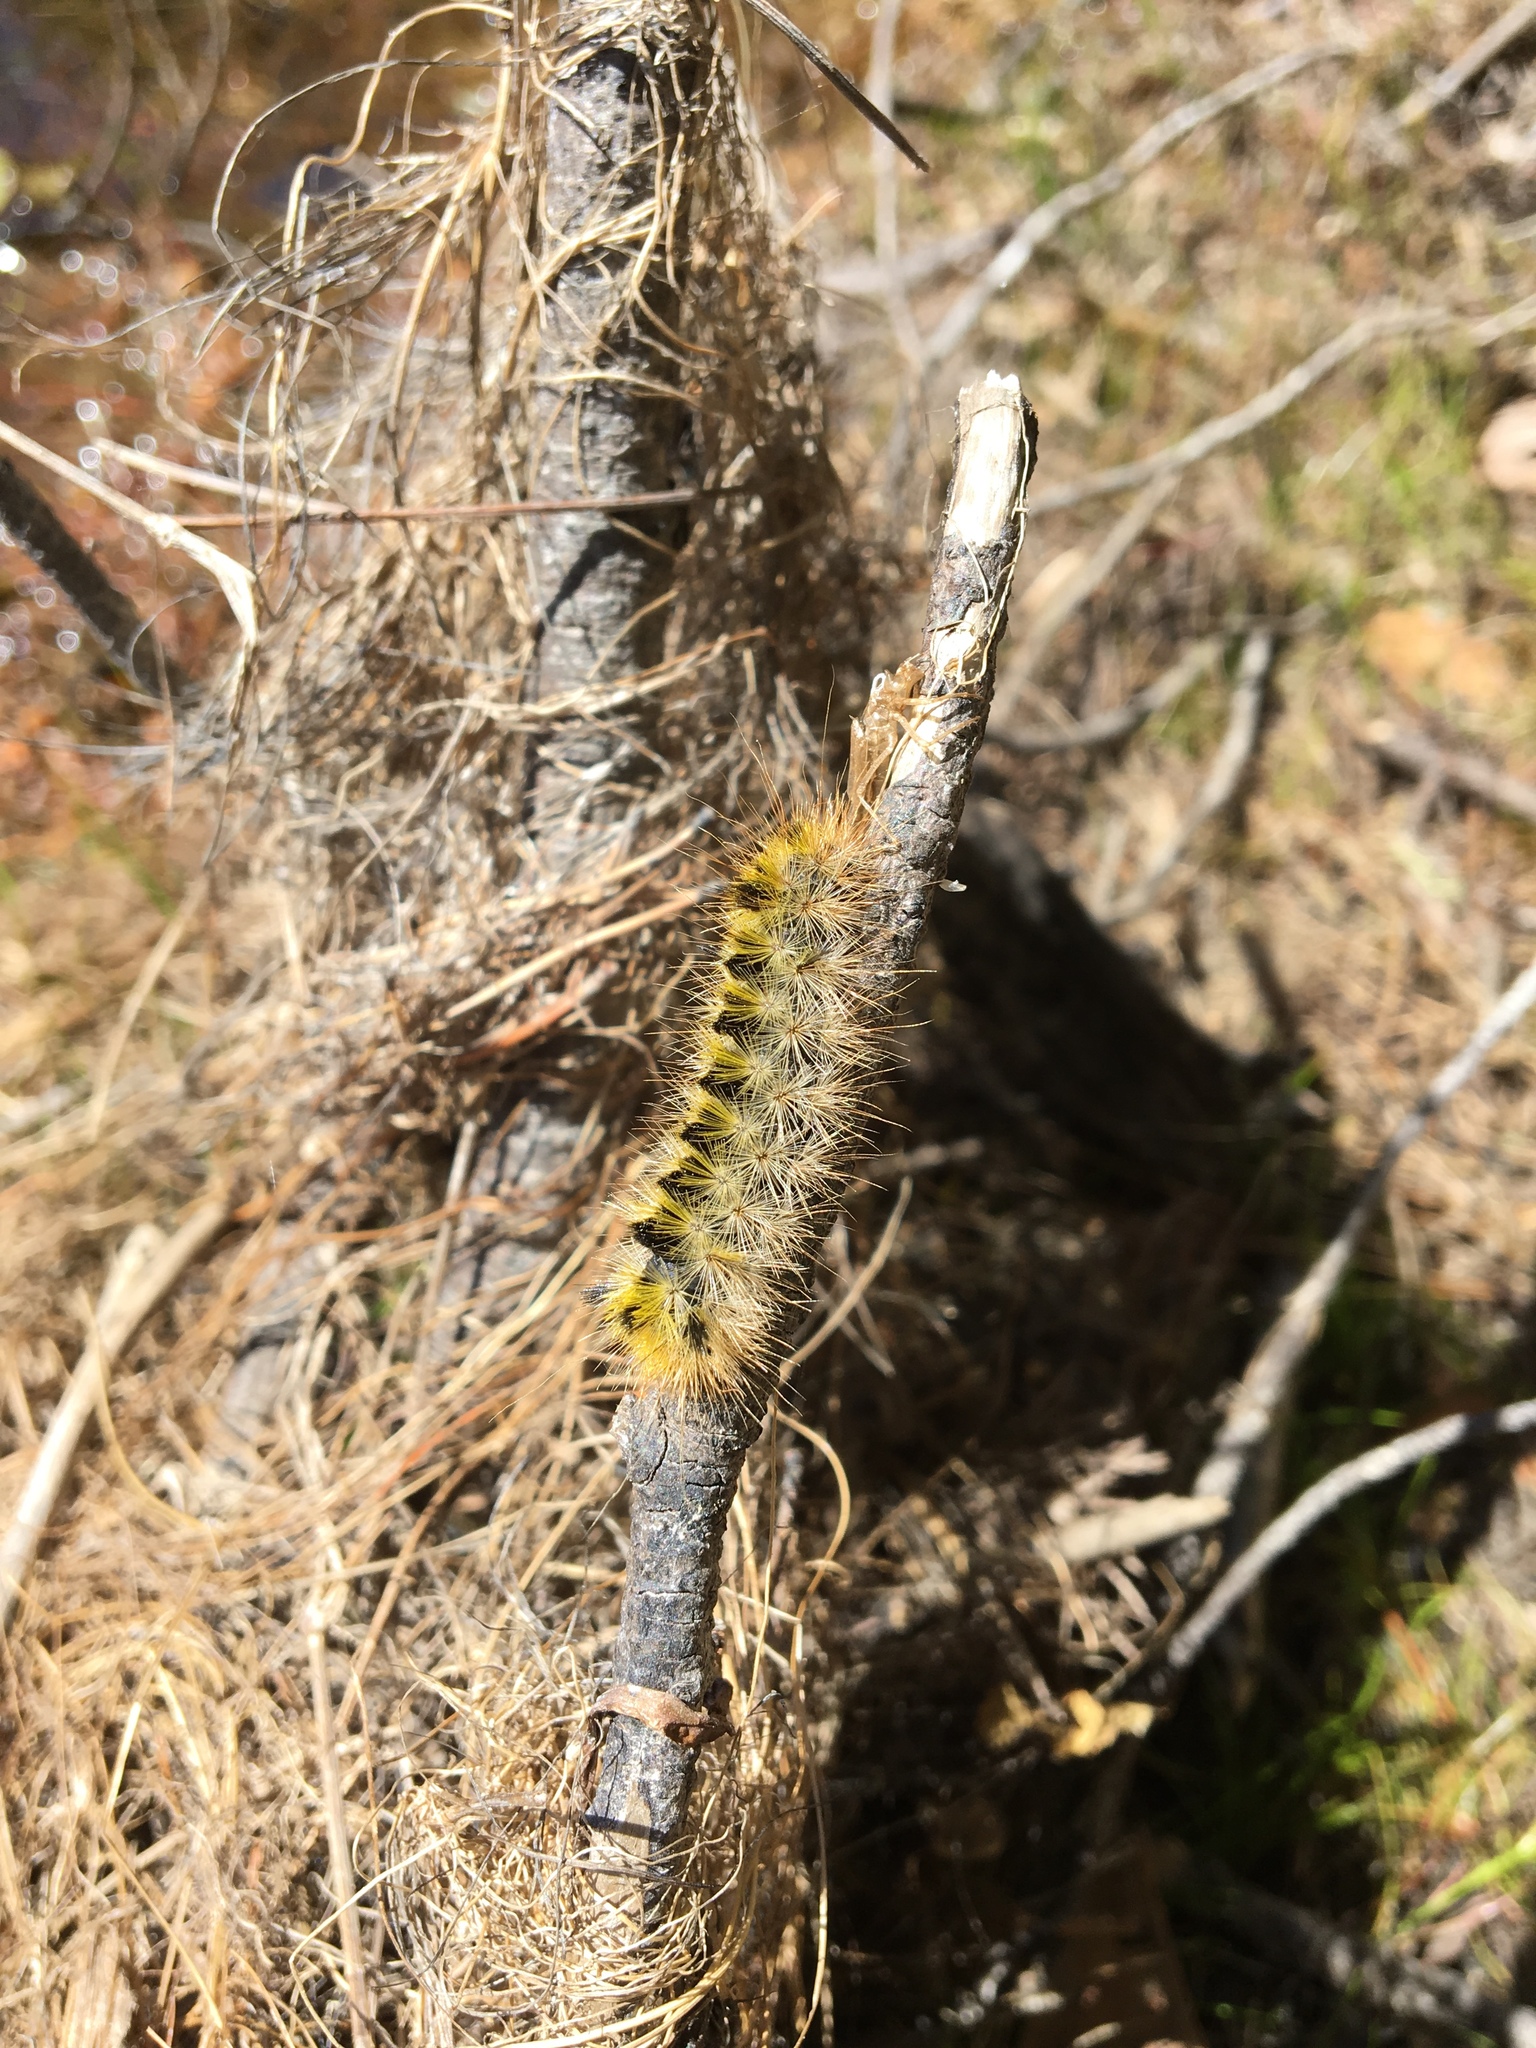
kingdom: Animalia
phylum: Arthropoda
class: Insecta
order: Lepidoptera
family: Erebidae
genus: Lophocampa
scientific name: Lophocampa argentata
